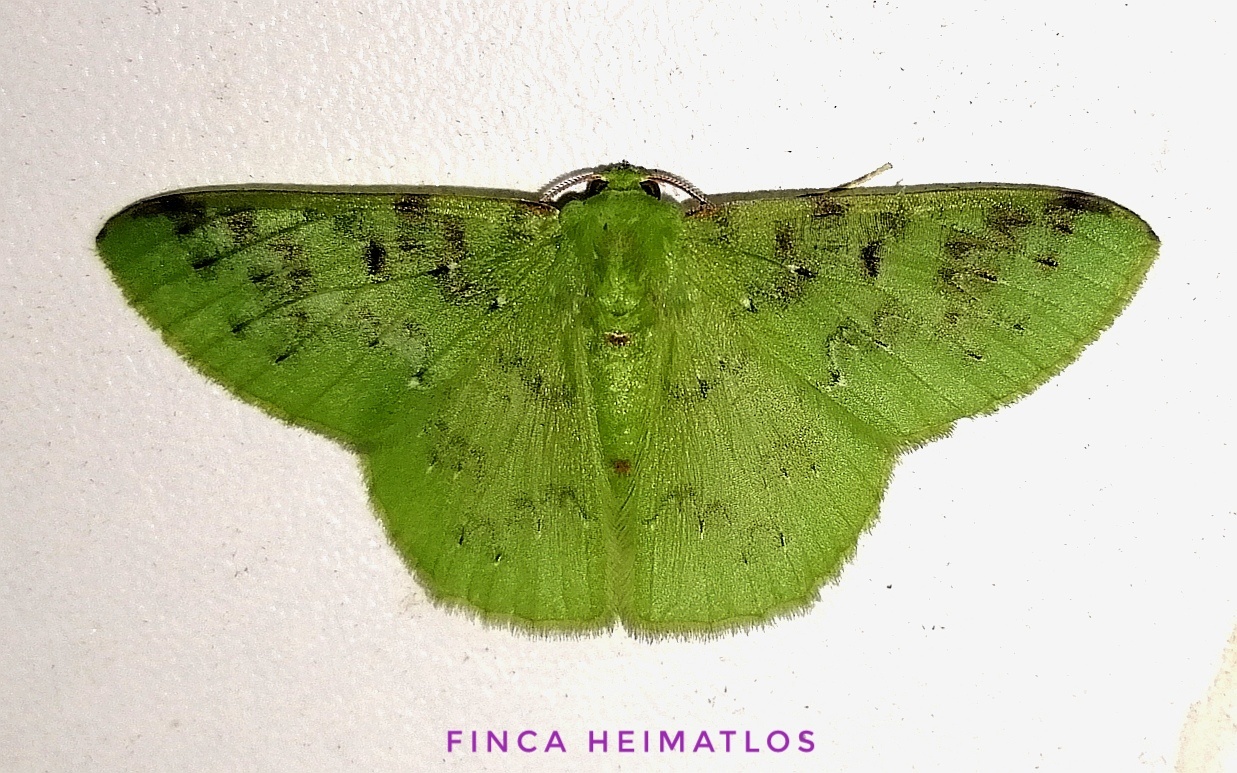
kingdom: Animalia
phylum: Arthropoda
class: Insecta
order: Lepidoptera
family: Geometridae
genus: Nemoria
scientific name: Nemoria parcipuncta
